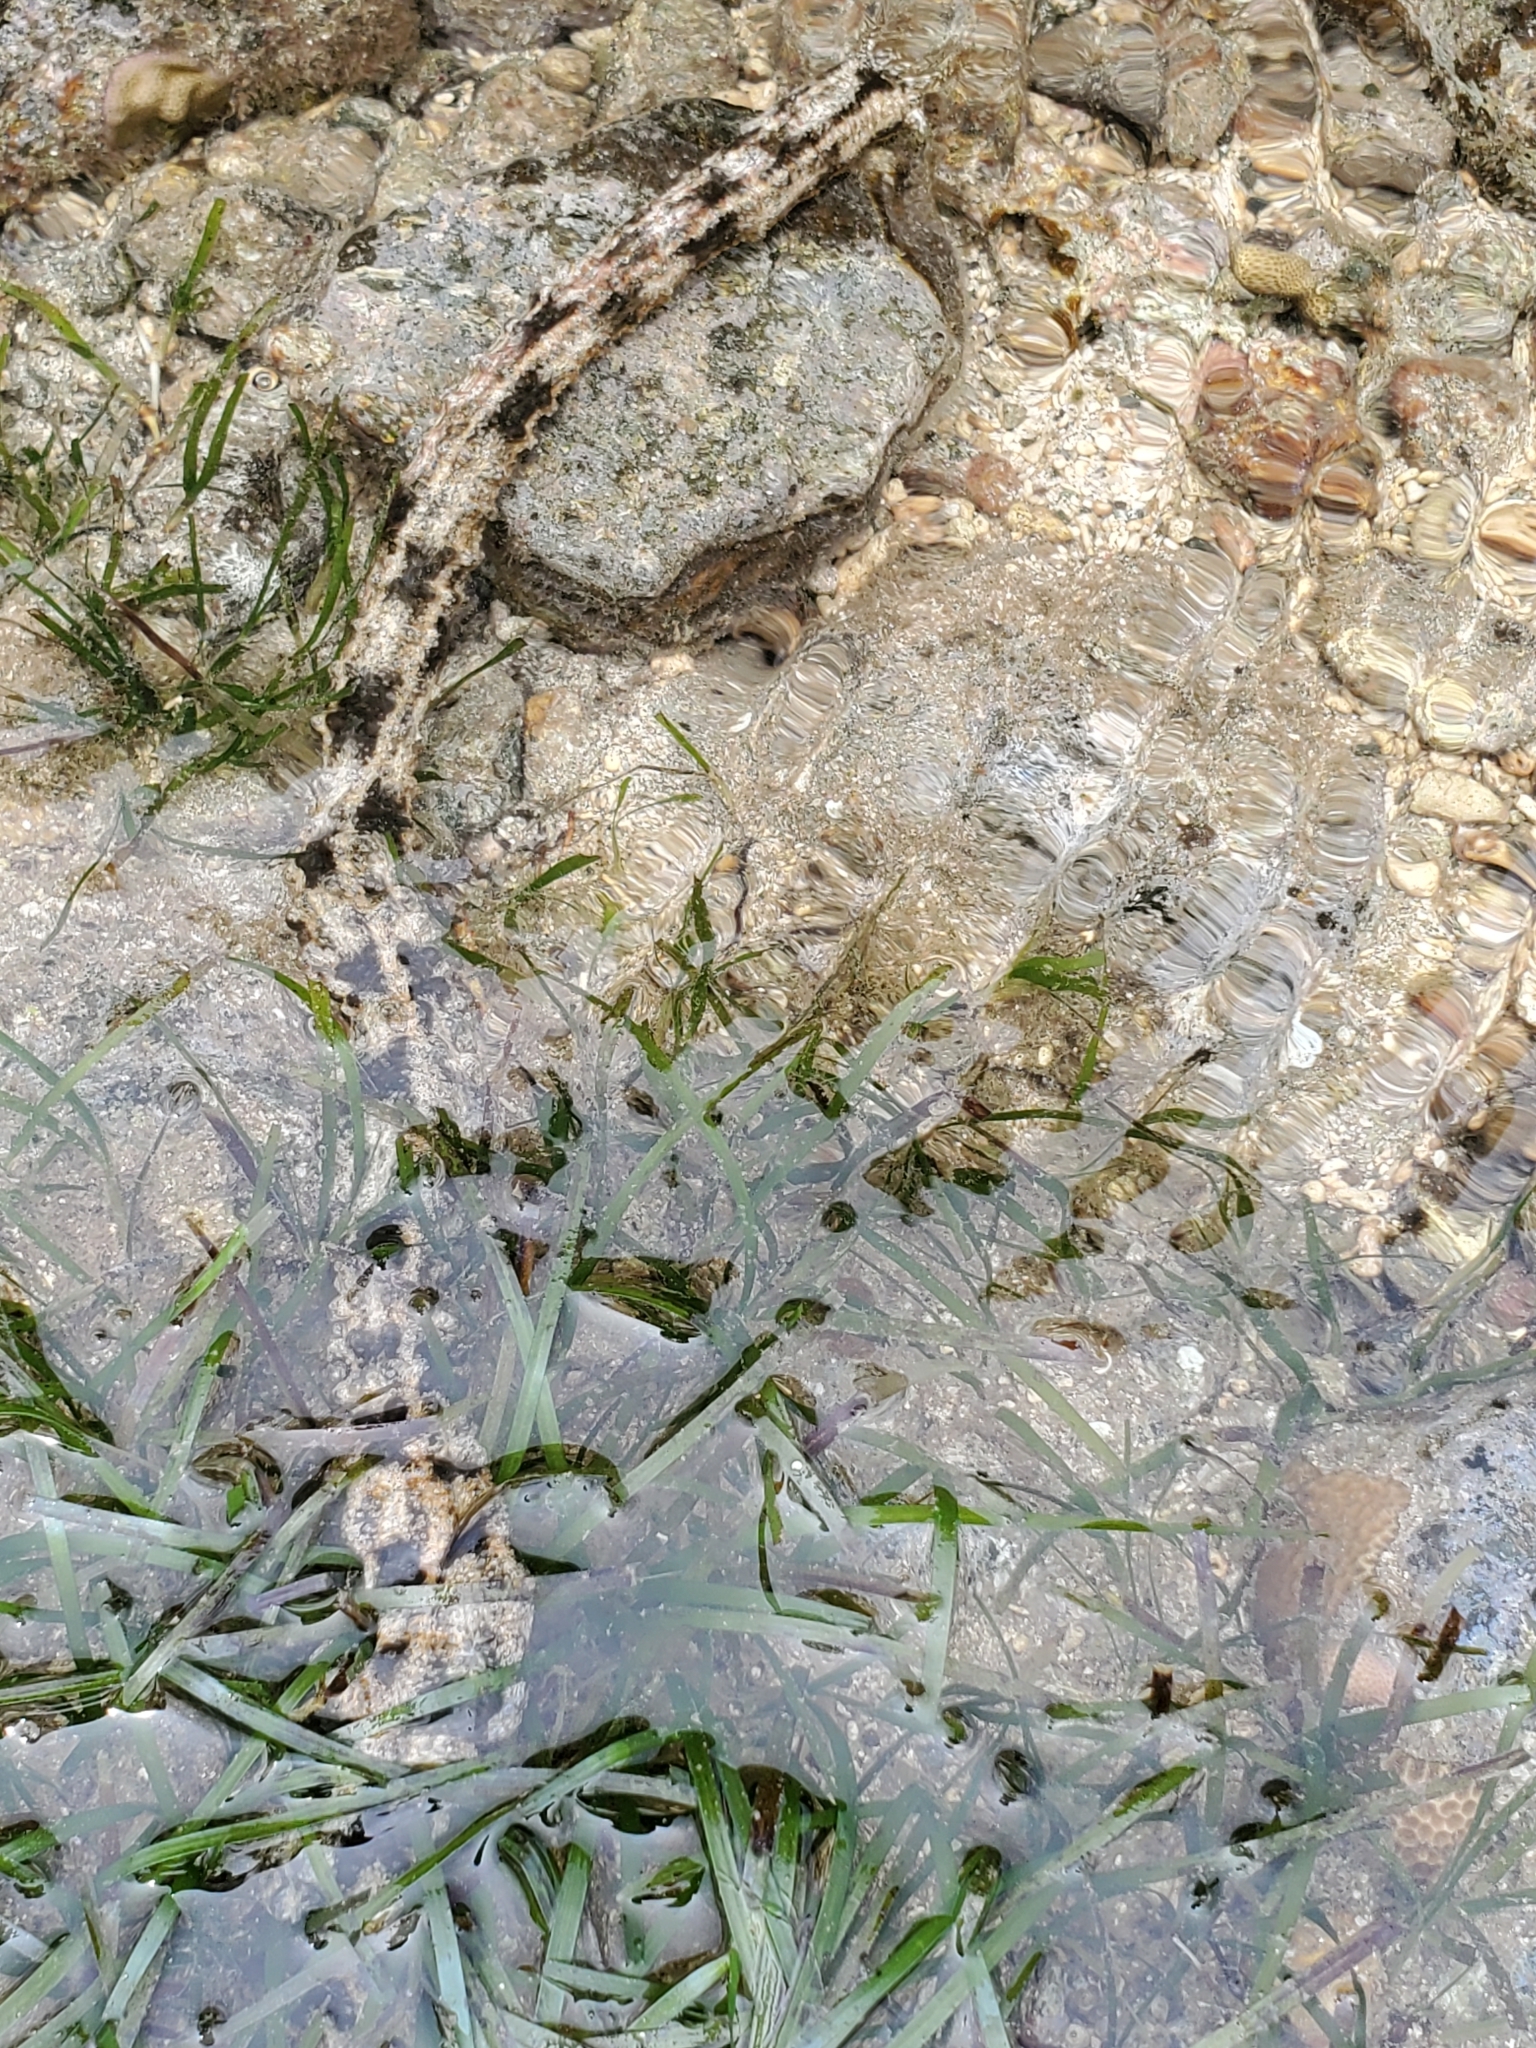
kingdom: Animalia
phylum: Echinodermata
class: Holothuroidea
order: Apodida
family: Synaptidae
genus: Synapta
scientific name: Synapta maculata
